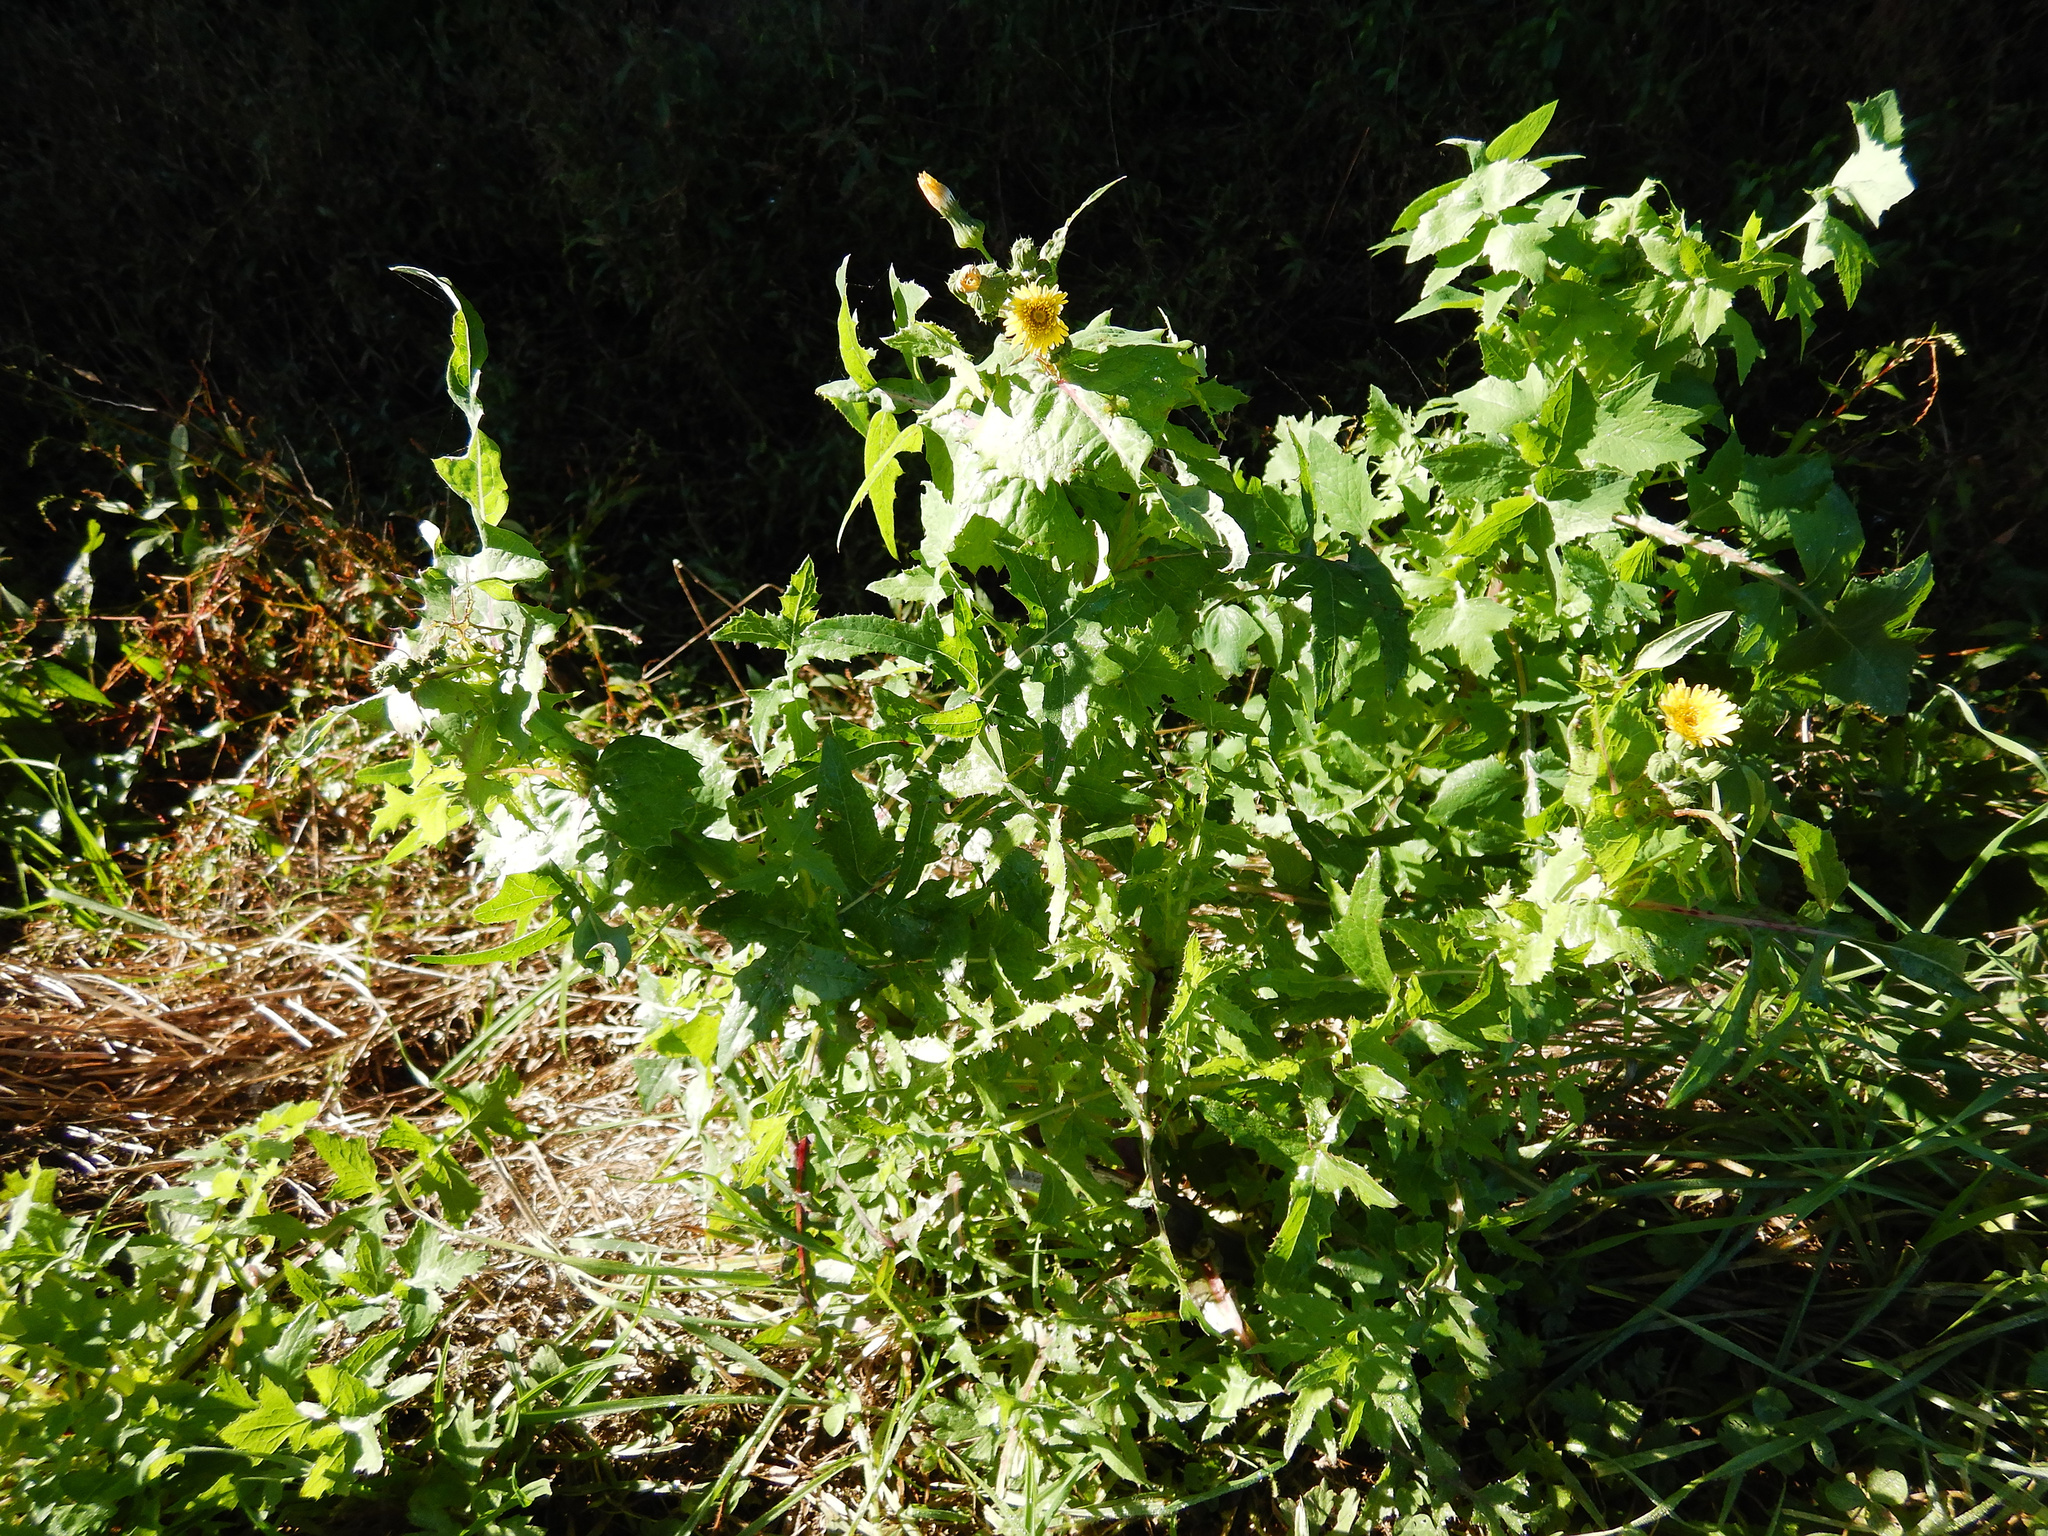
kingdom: Plantae
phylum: Tracheophyta
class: Magnoliopsida
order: Asterales
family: Asteraceae
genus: Sonchus
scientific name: Sonchus oleraceus
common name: Common sowthistle
